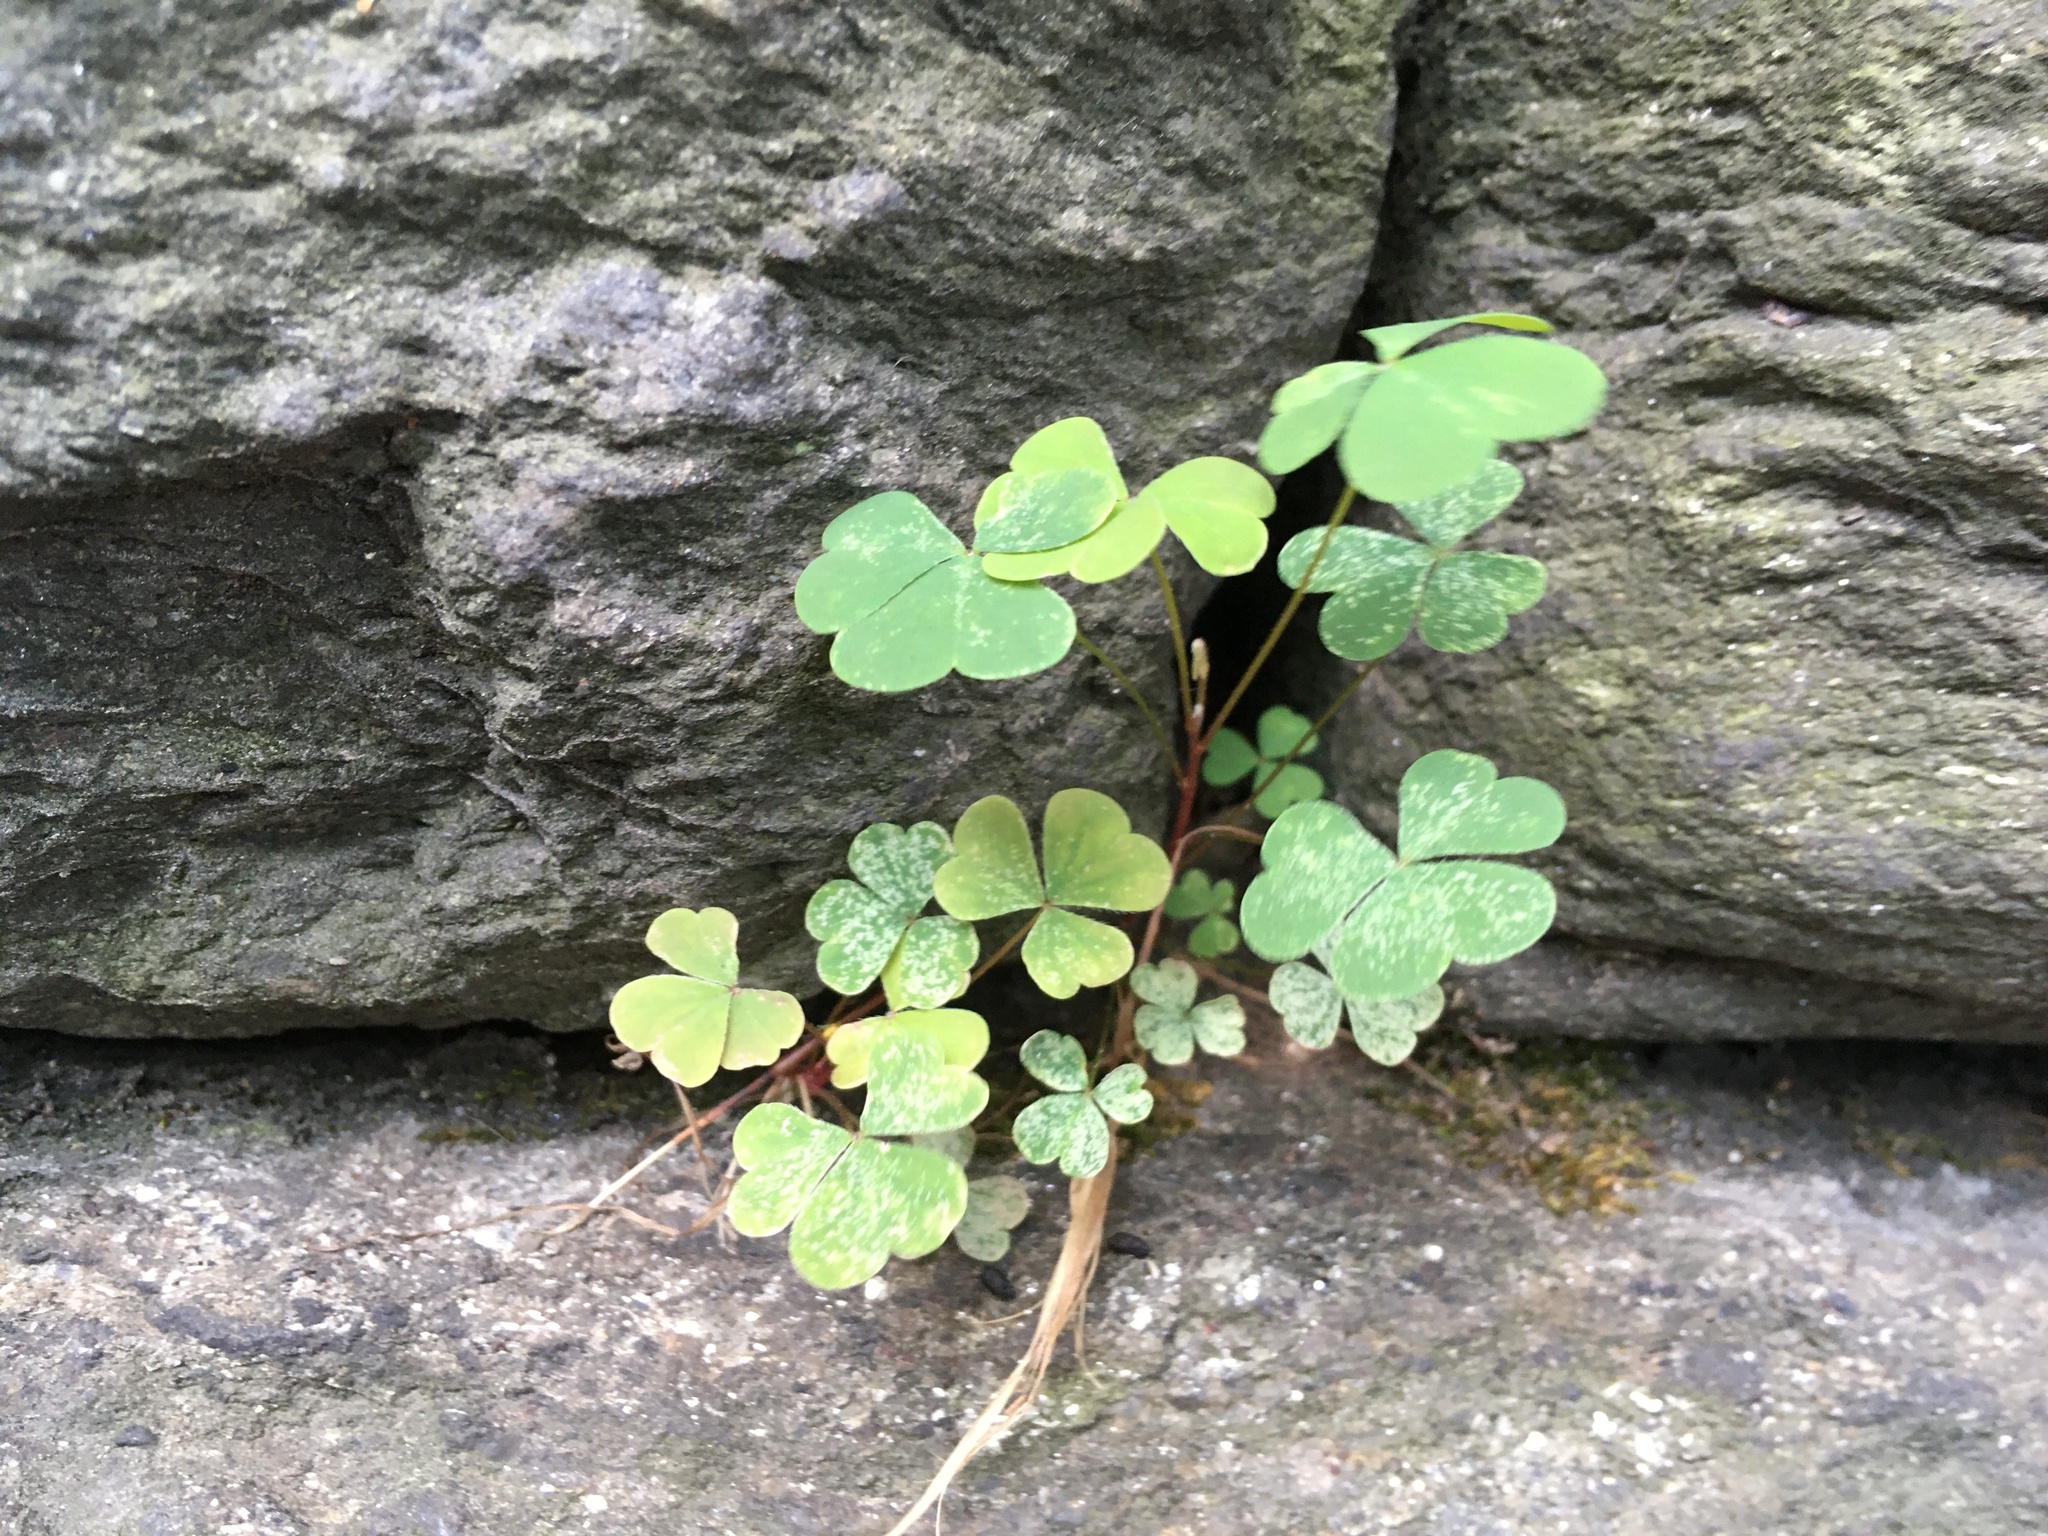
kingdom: Plantae
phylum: Tracheophyta
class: Magnoliopsida
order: Oxalidales
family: Oxalidaceae
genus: Oxalis
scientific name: Oxalis corniculata
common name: Procumbent yellow-sorrel
